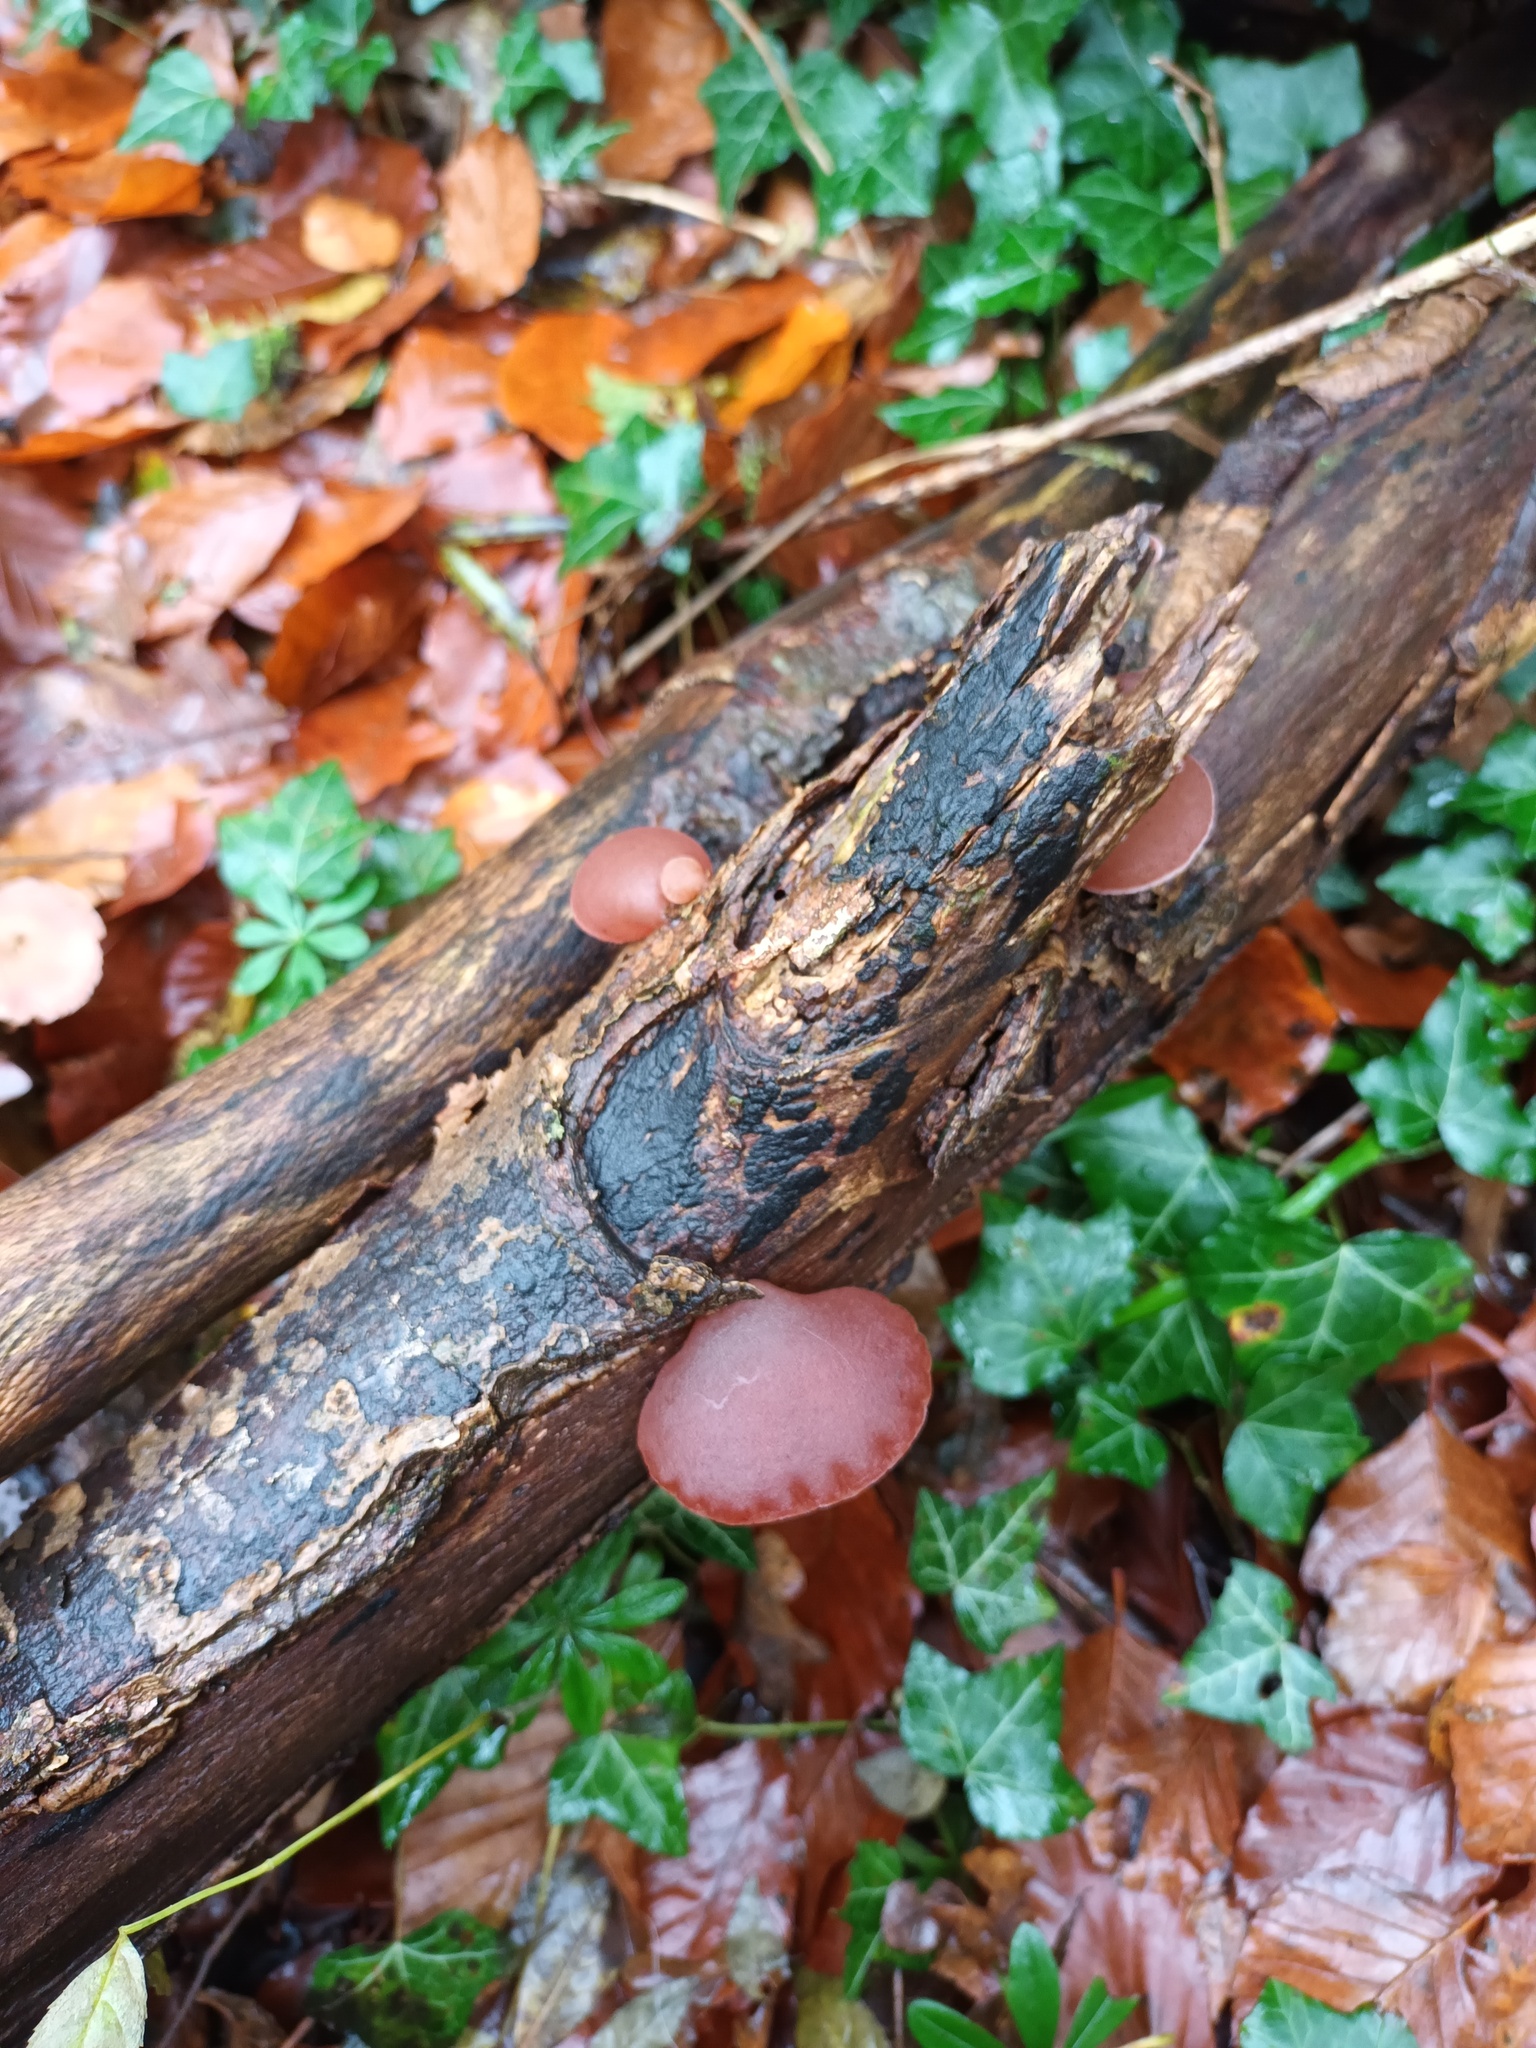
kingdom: Fungi
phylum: Basidiomycota
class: Agaricomycetes
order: Auriculariales
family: Auriculariaceae
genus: Auricularia
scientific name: Auricularia auricula-judae
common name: Jelly ear
